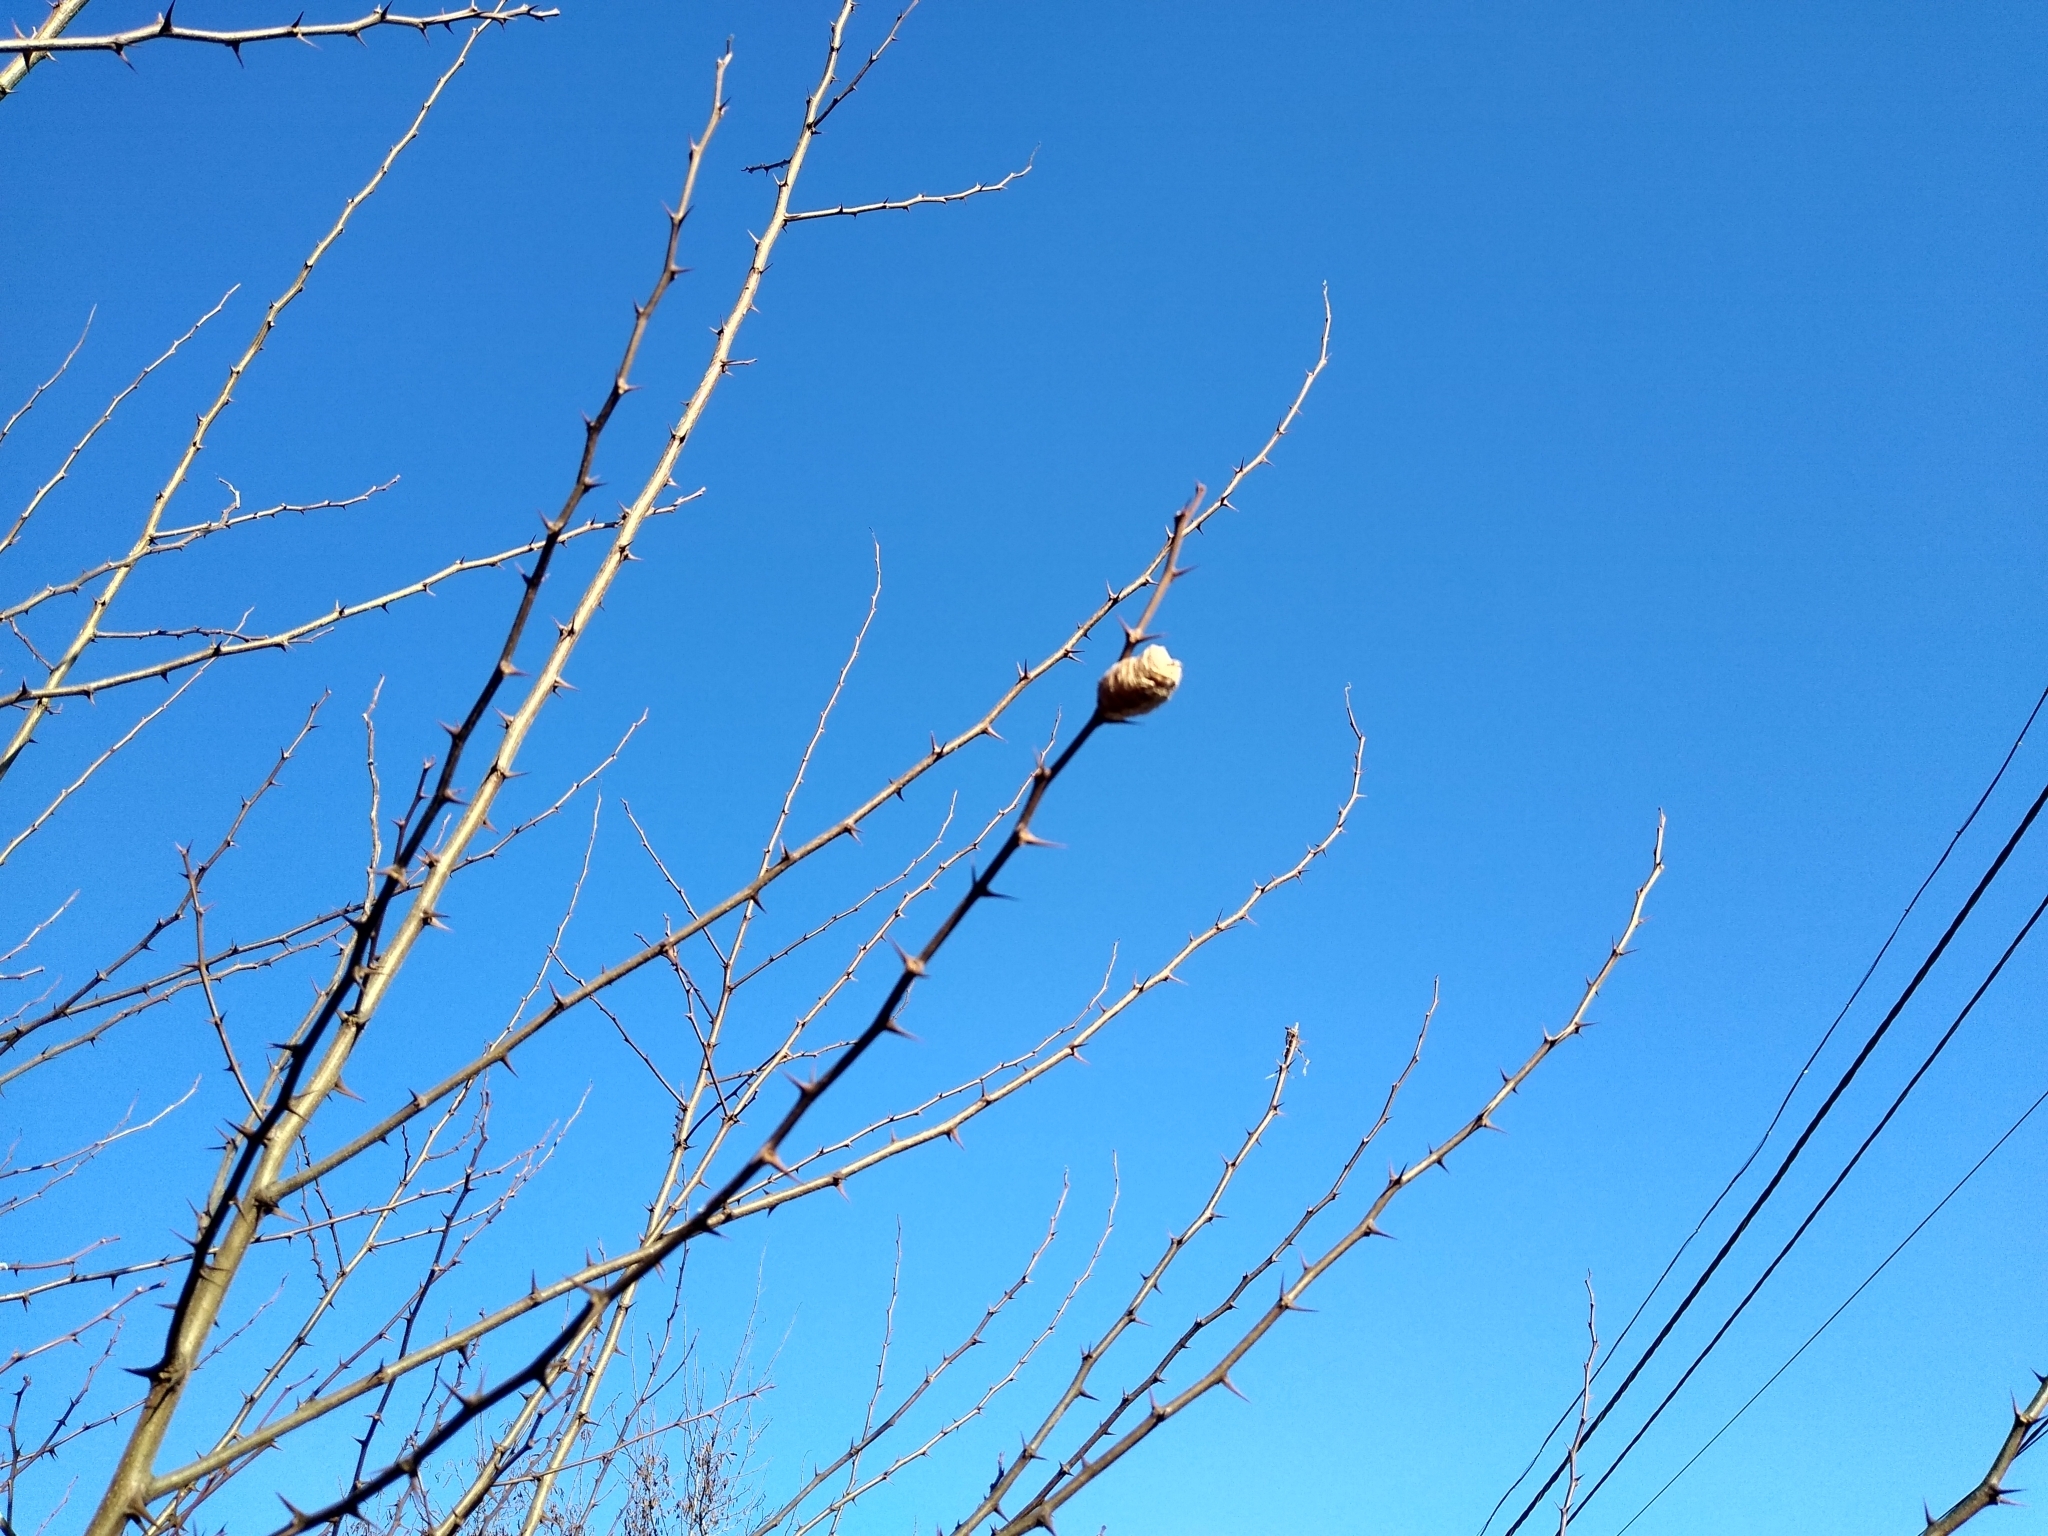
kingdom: Animalia
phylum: Arthropoda
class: Insecta
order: Mantodea
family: Mantidae
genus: Hierodula
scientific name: Hierodula transcaucasica
